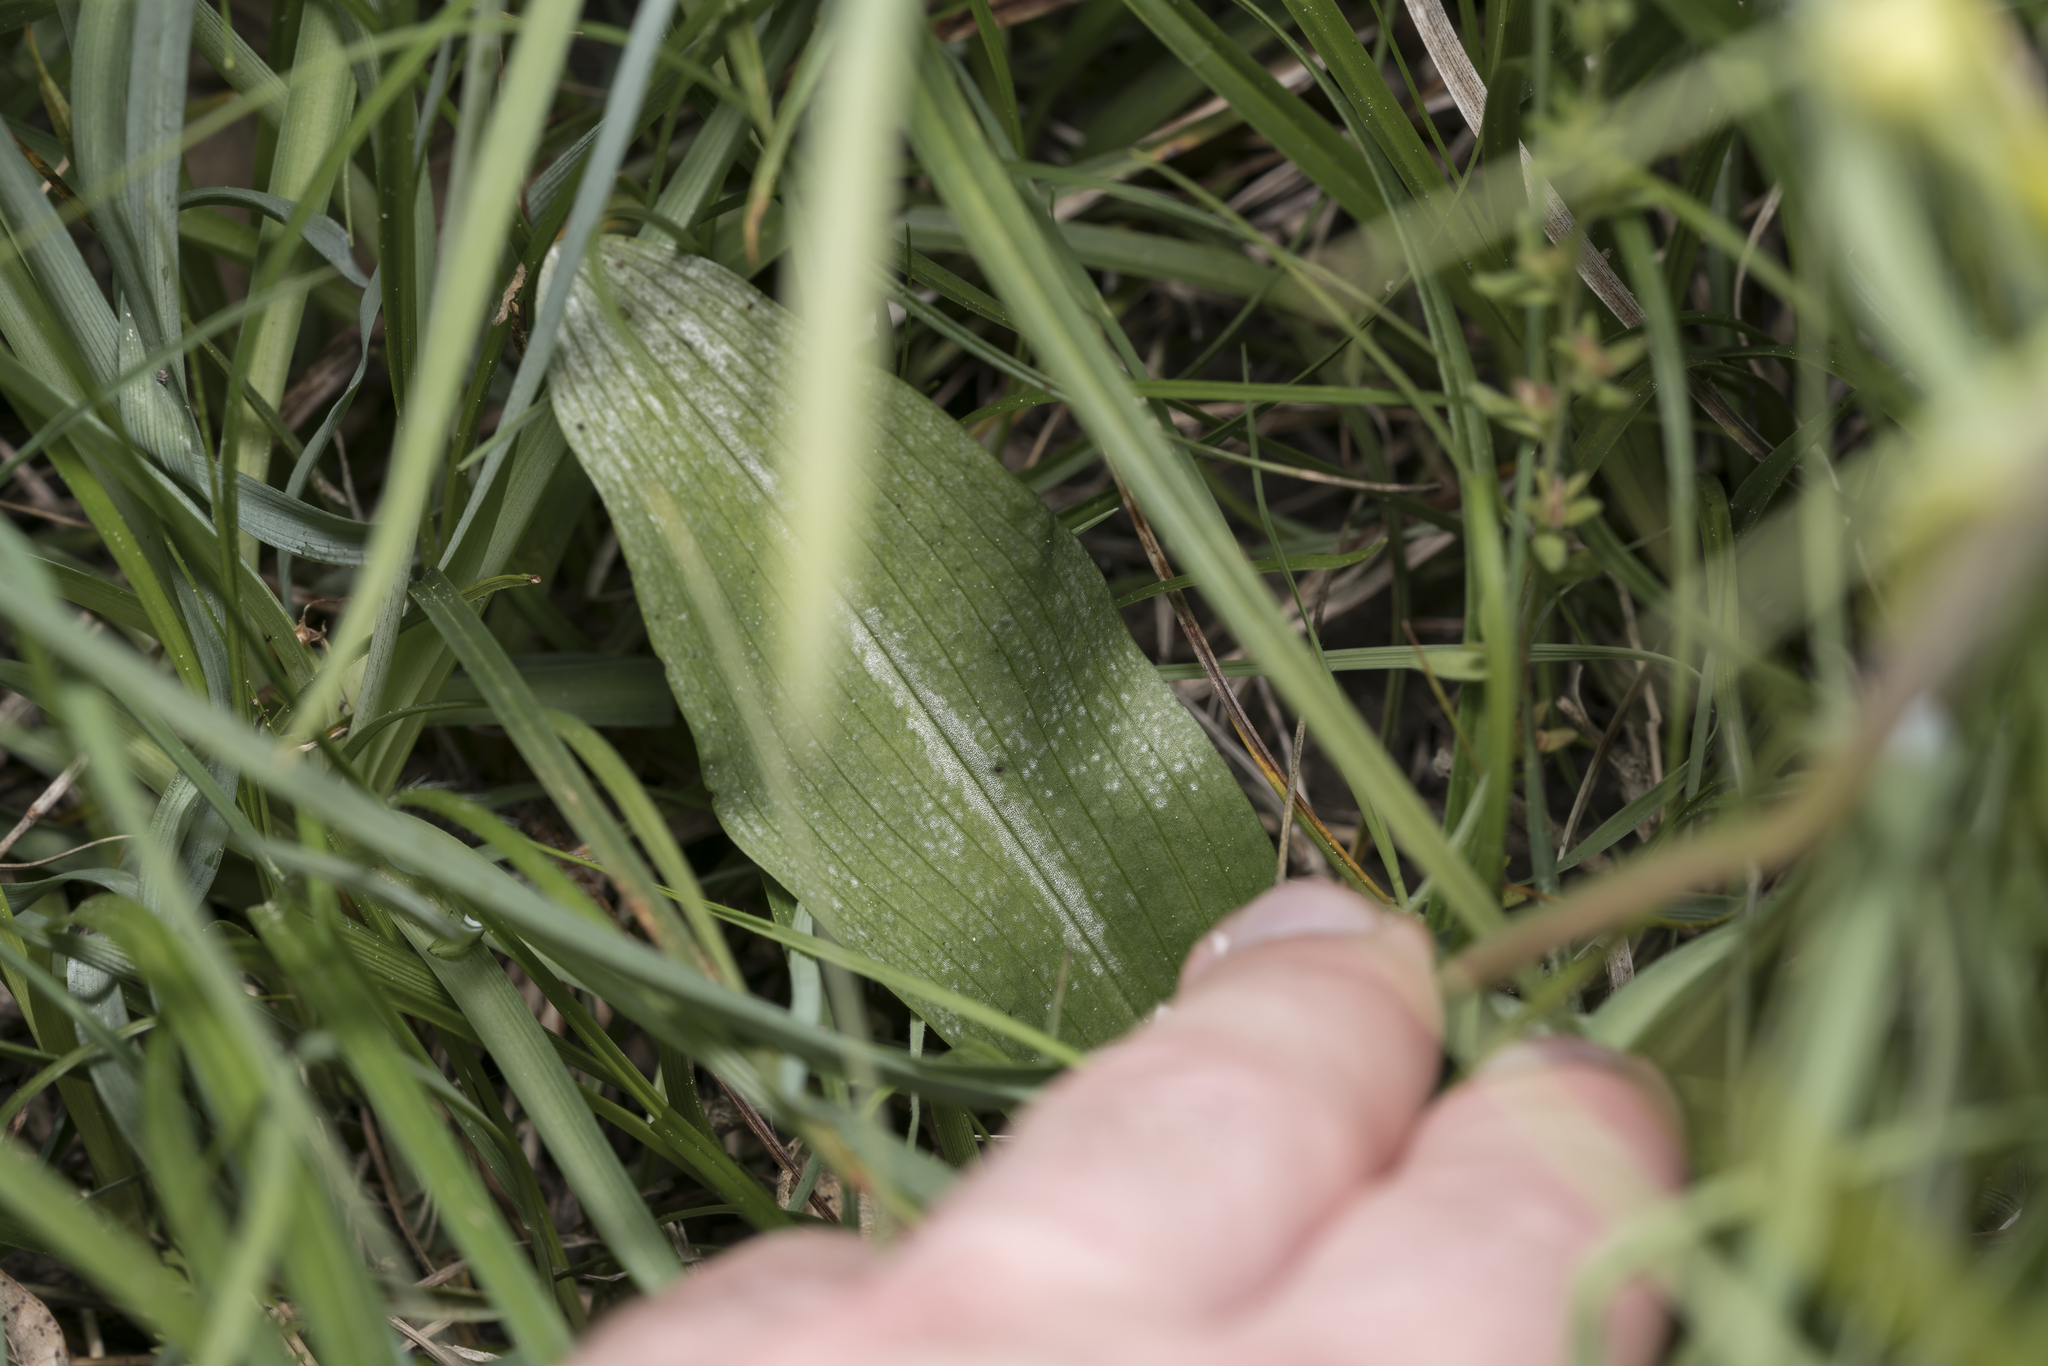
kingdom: Plantae
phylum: Tracheophyta
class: Liliopsida
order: Asparagales
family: Orchidaceae
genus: Platanthera
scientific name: Platanthera chlorantha
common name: Greater butterfly-orchid
